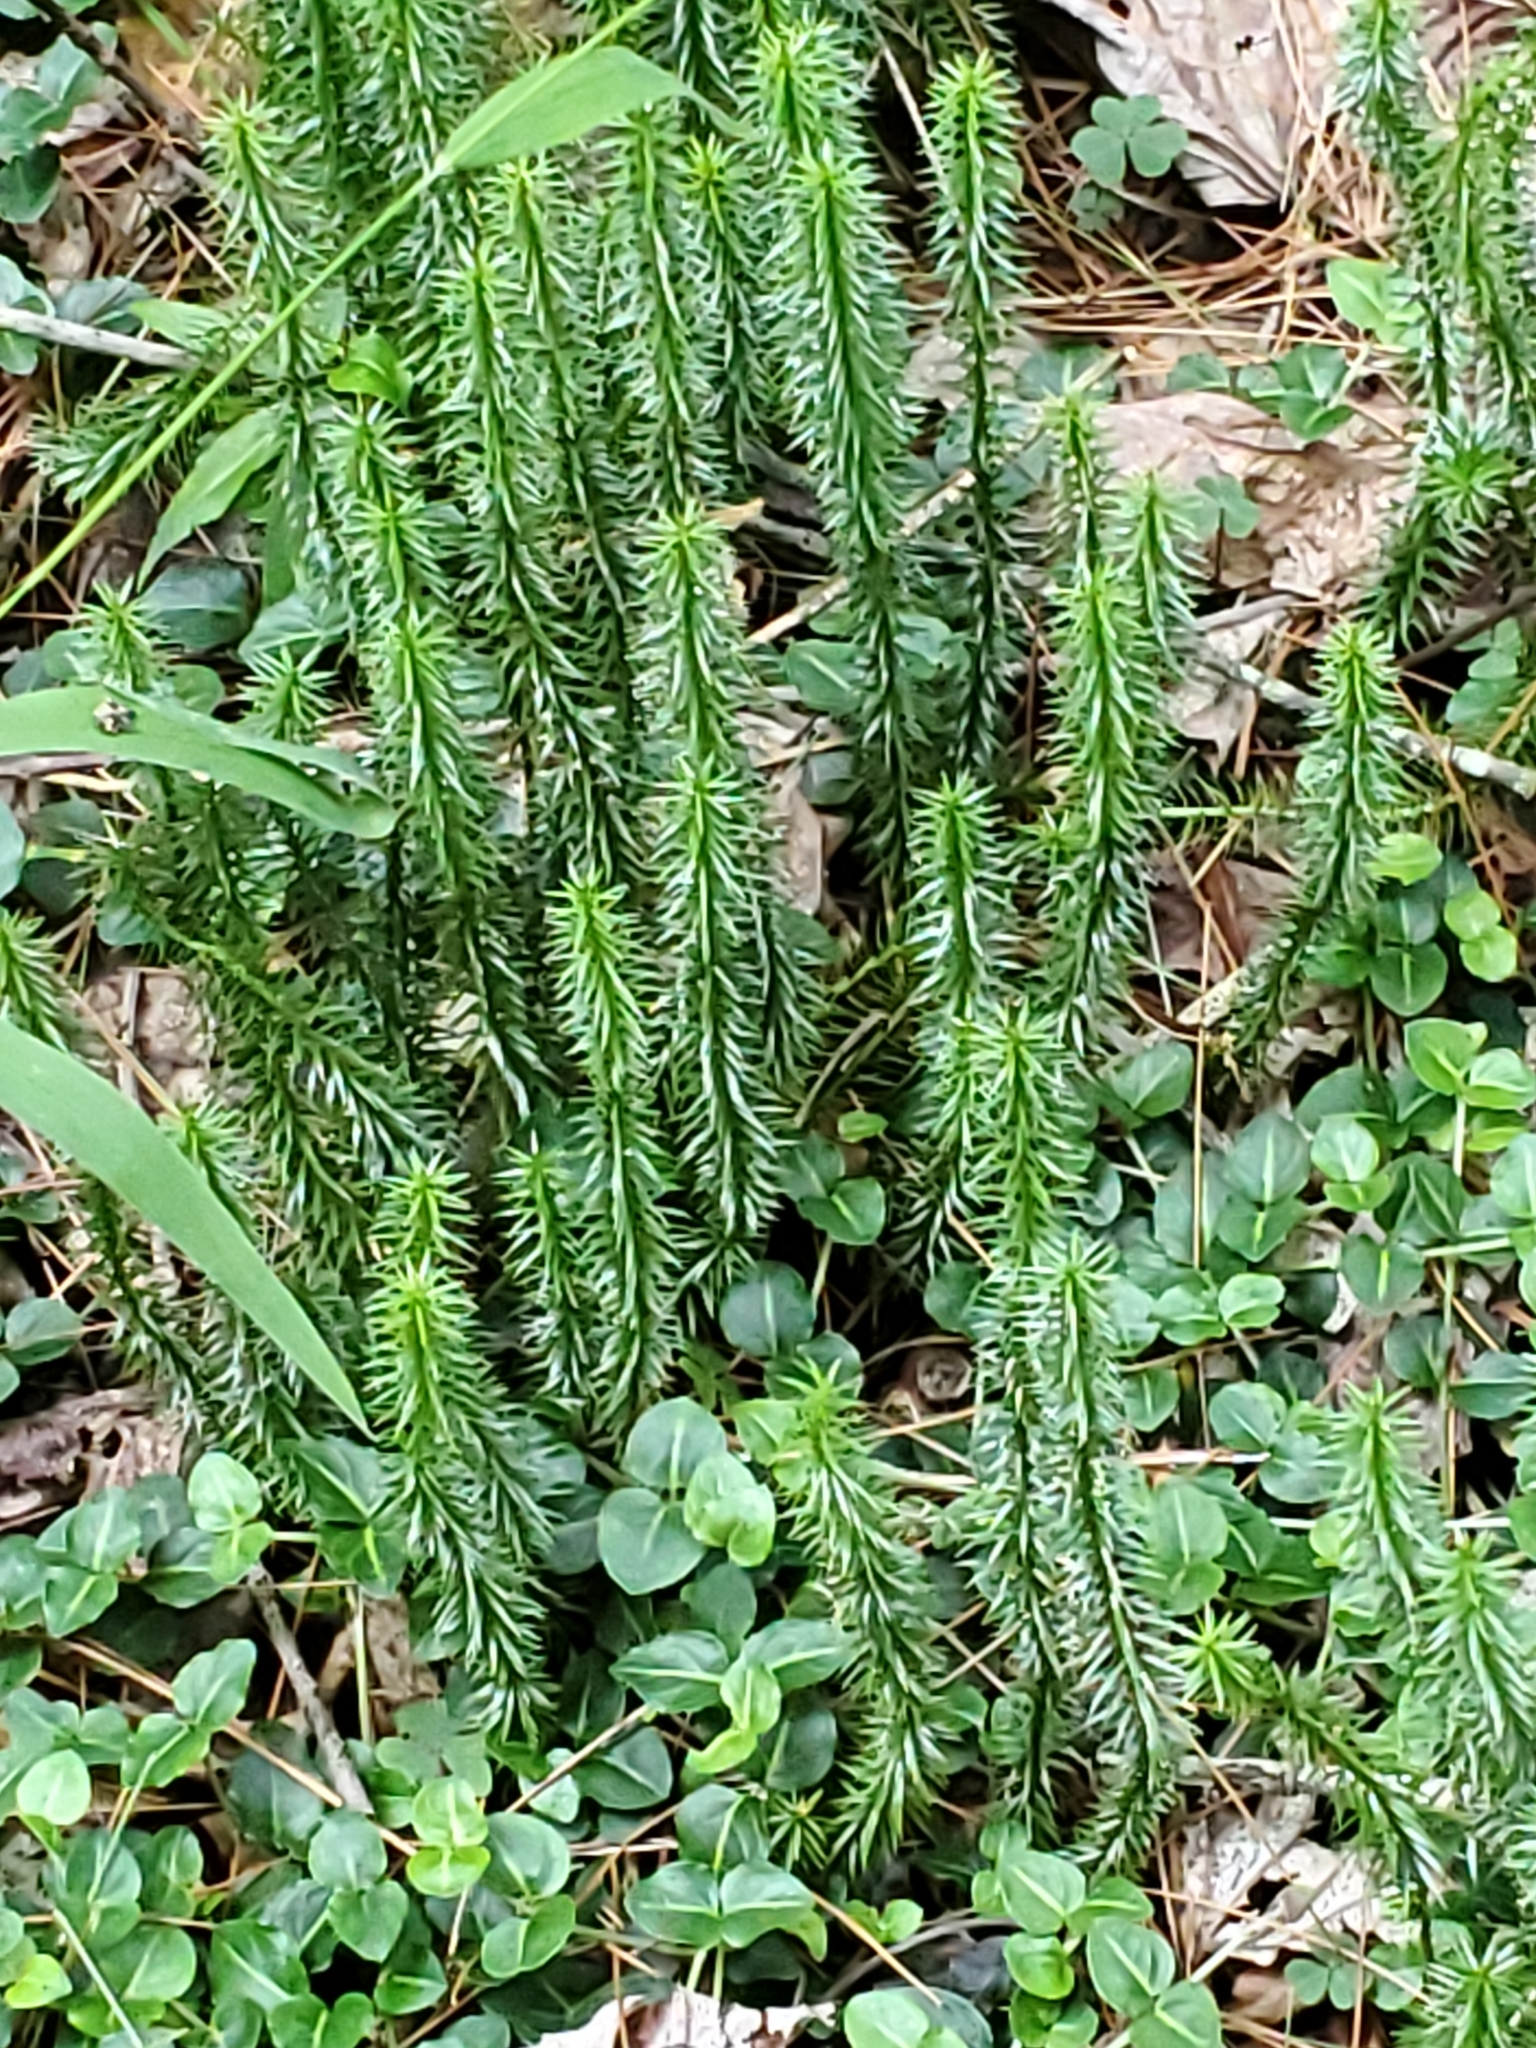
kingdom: Plantae
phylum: Tracheophyta
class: Lycopodiopsida
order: Lycopodiales
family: Lycopodiaceae
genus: Huperzia
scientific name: Huperzia lucidula
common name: Shining clubmoss
